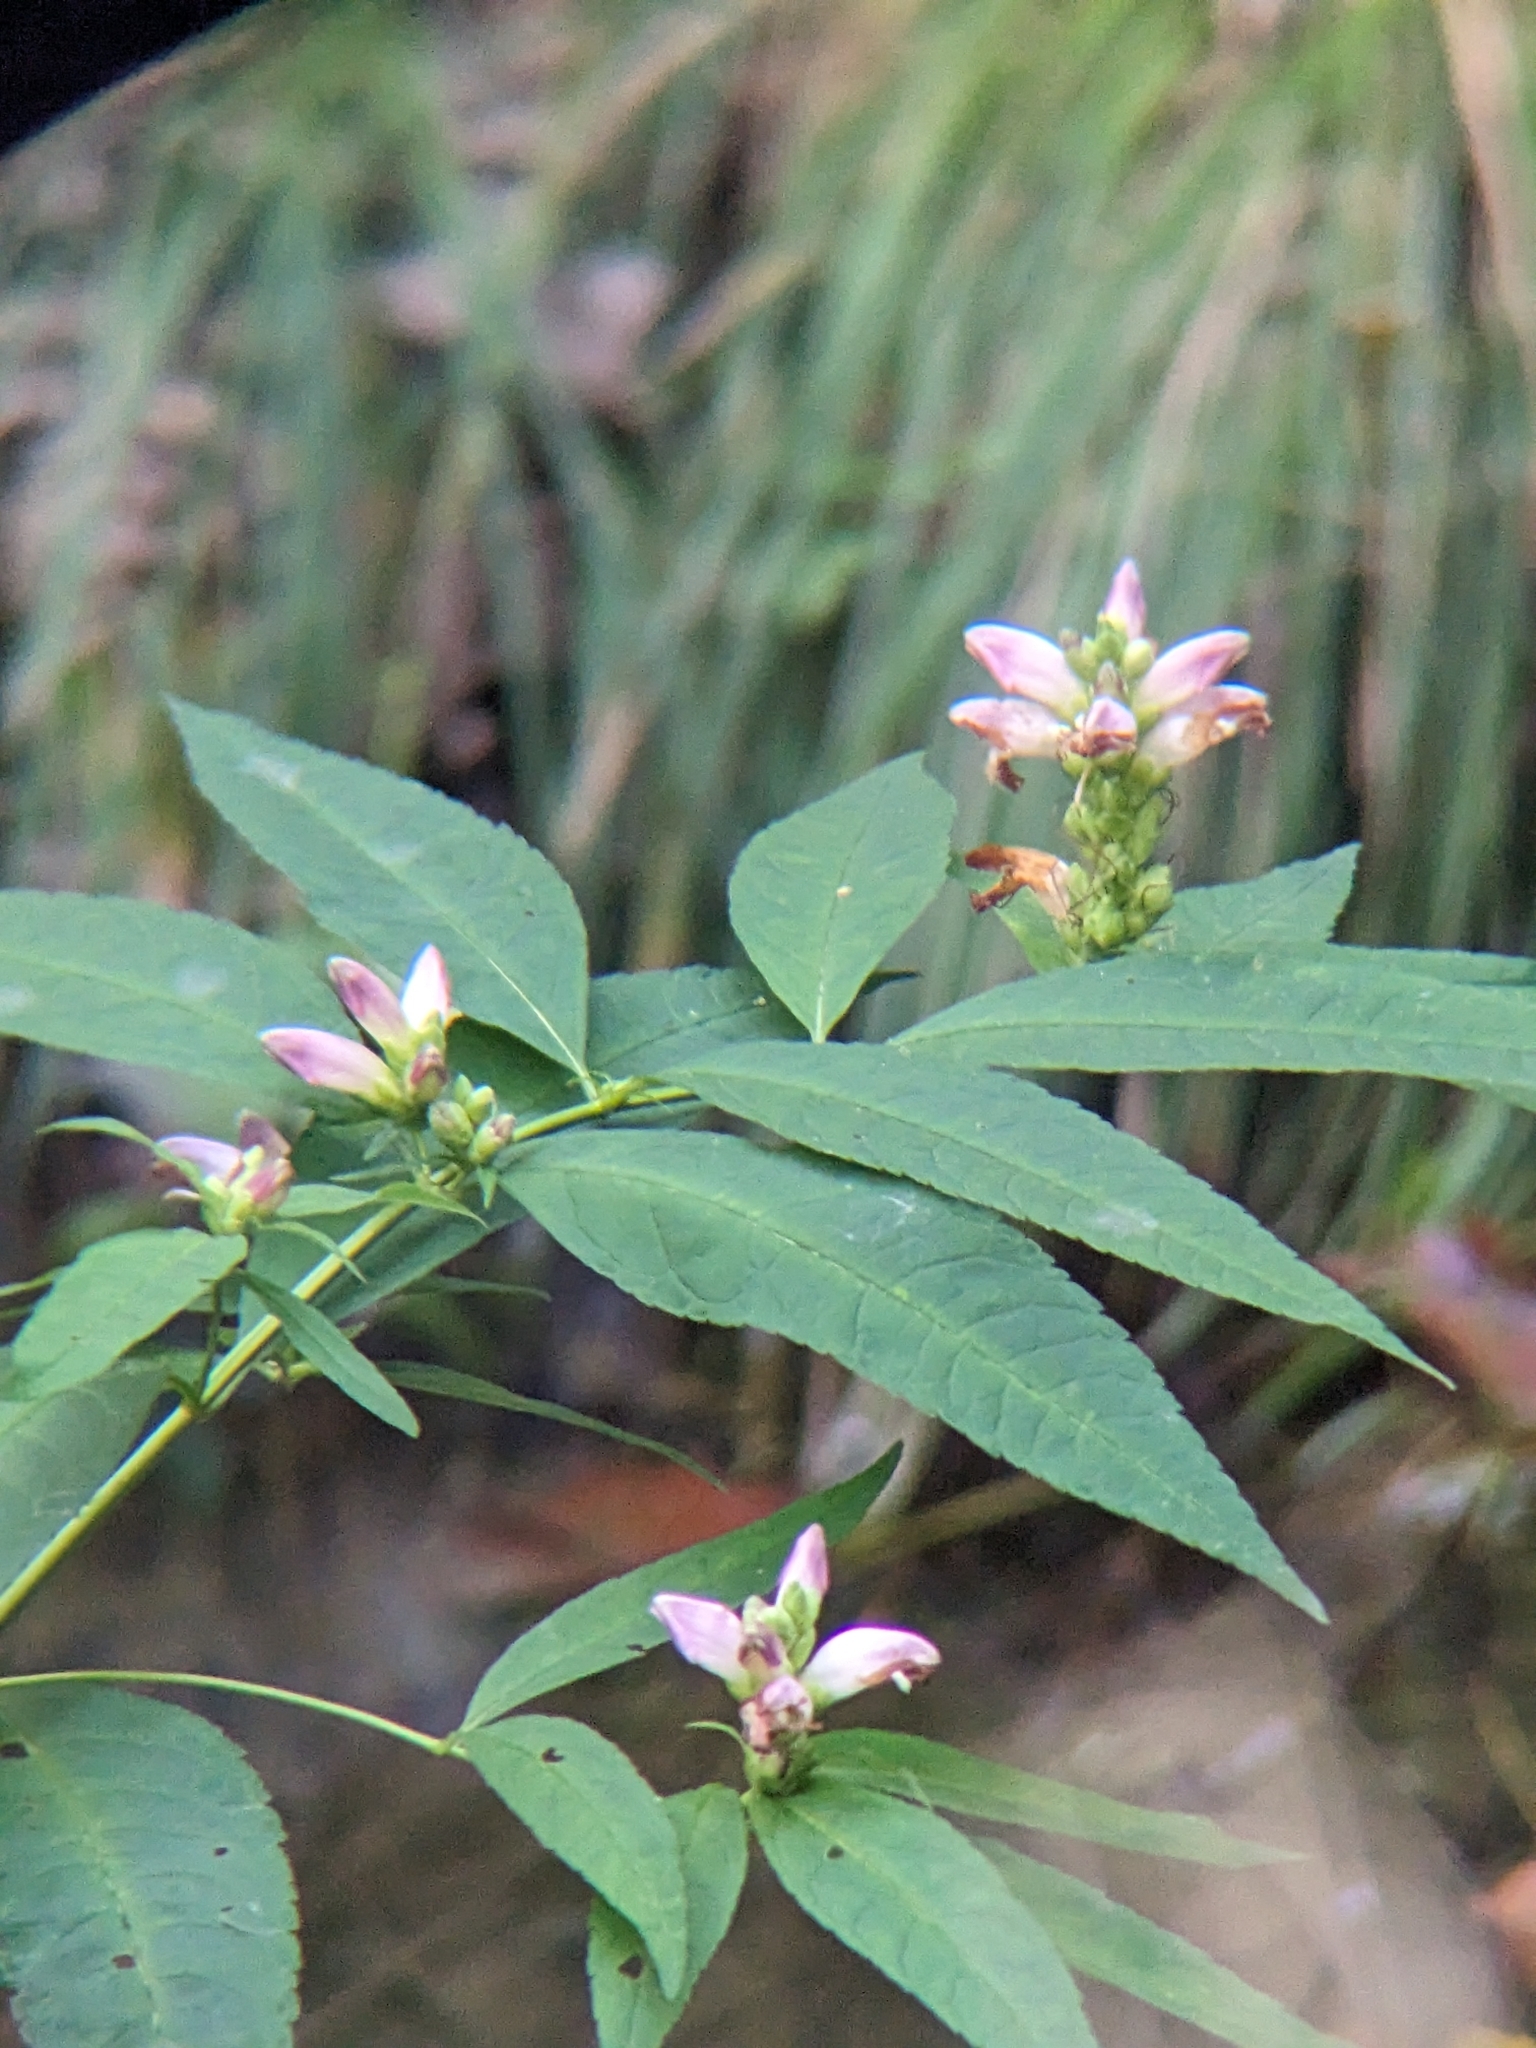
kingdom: Plantae
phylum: Tracheophyta
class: Magnoliopsida
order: Lamiales
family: Plantaginaceae
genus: Chelone
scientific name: Chelone glabra
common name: Snakehead
